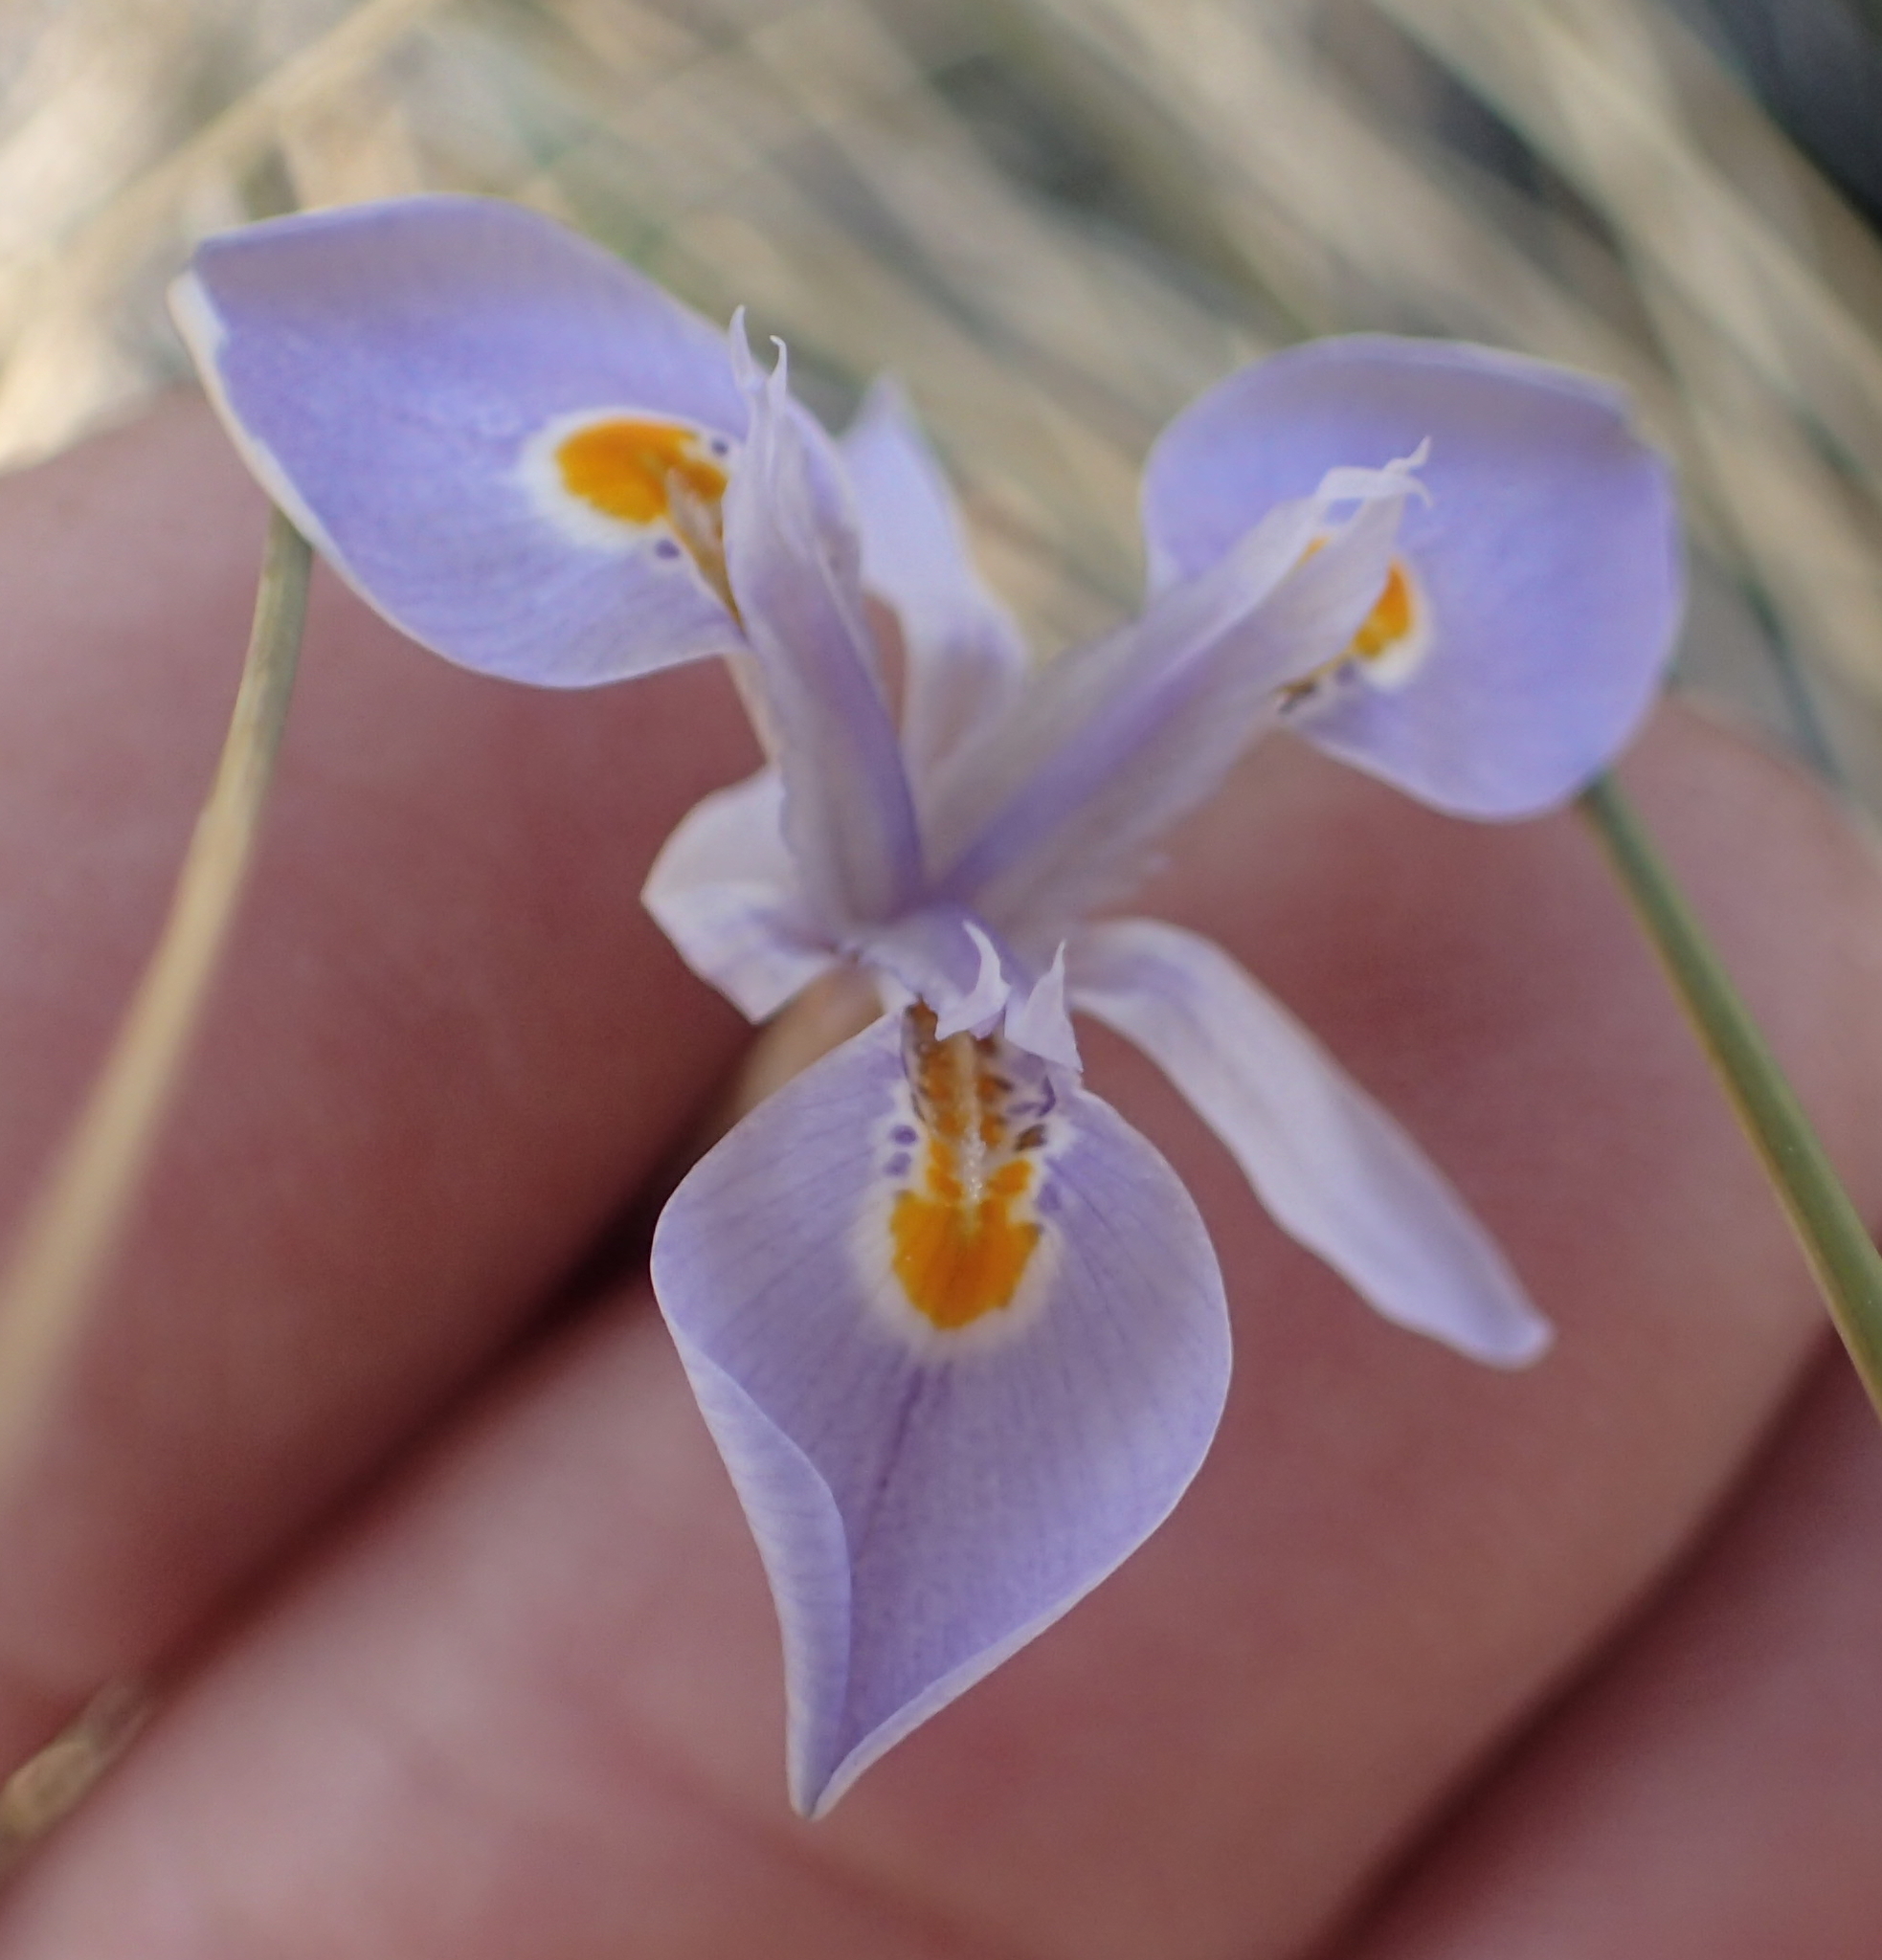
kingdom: Plantae
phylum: Tracheophyta
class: Liliopsida
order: Asparagales
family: Iridaceae
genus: Moraea
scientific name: Moraea stricta
